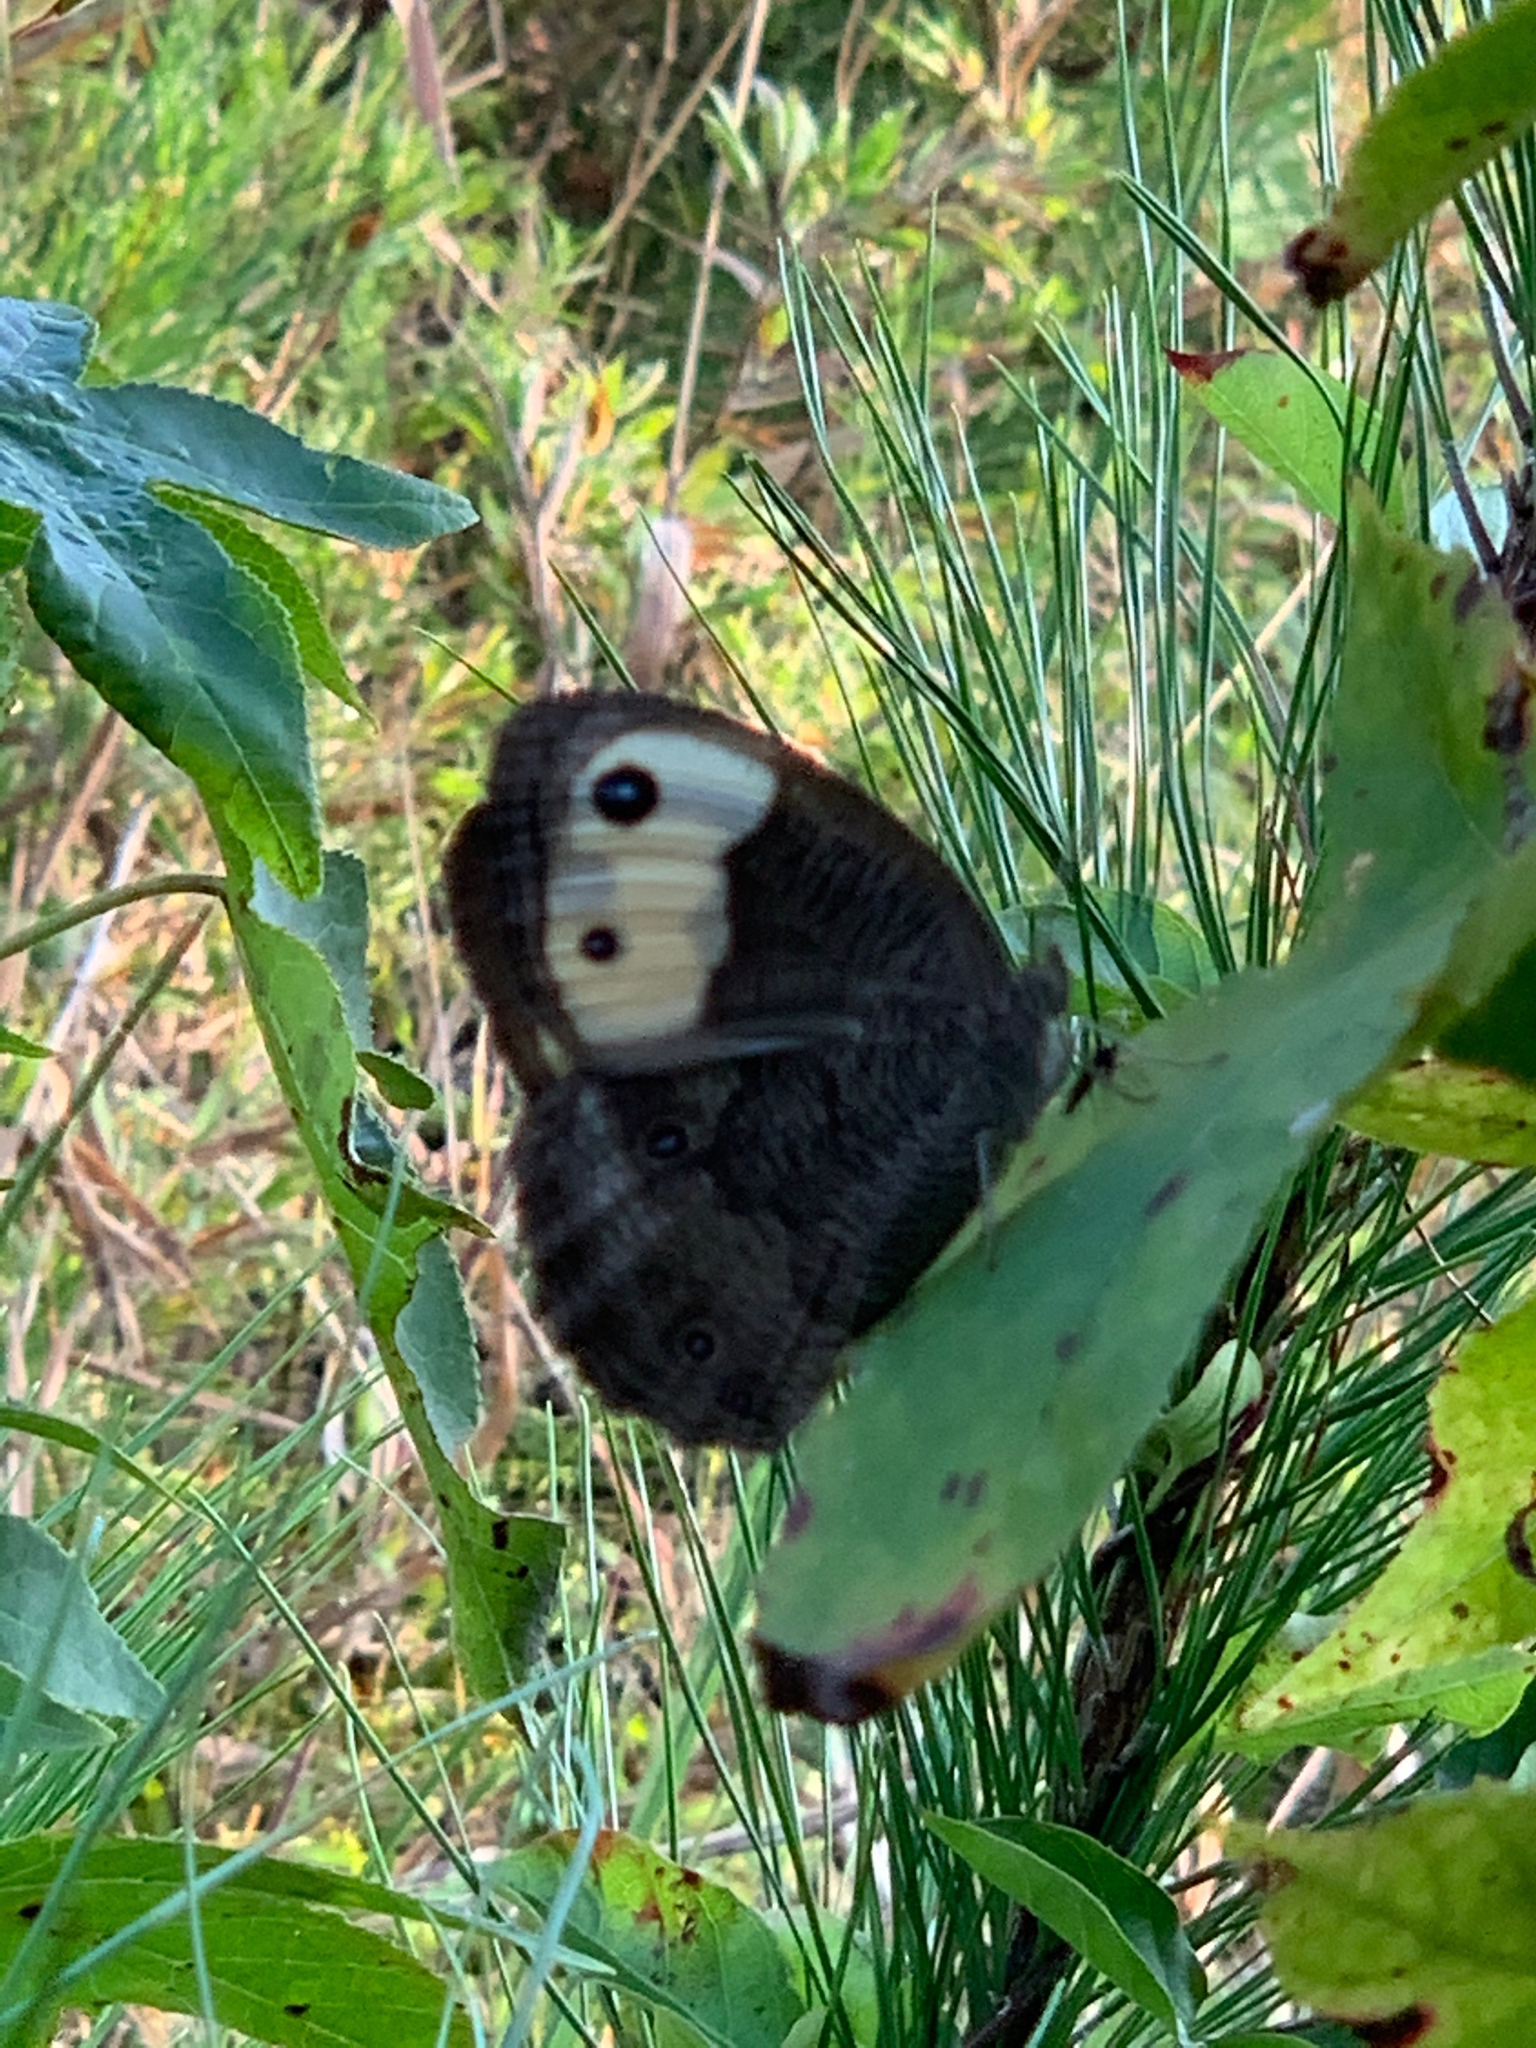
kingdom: Animalia
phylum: Arthropoda
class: Insecta
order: Lepidoptera
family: Nymphalidae
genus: Cercyonis
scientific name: Cercyonis pegala
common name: Common wood-nymph
